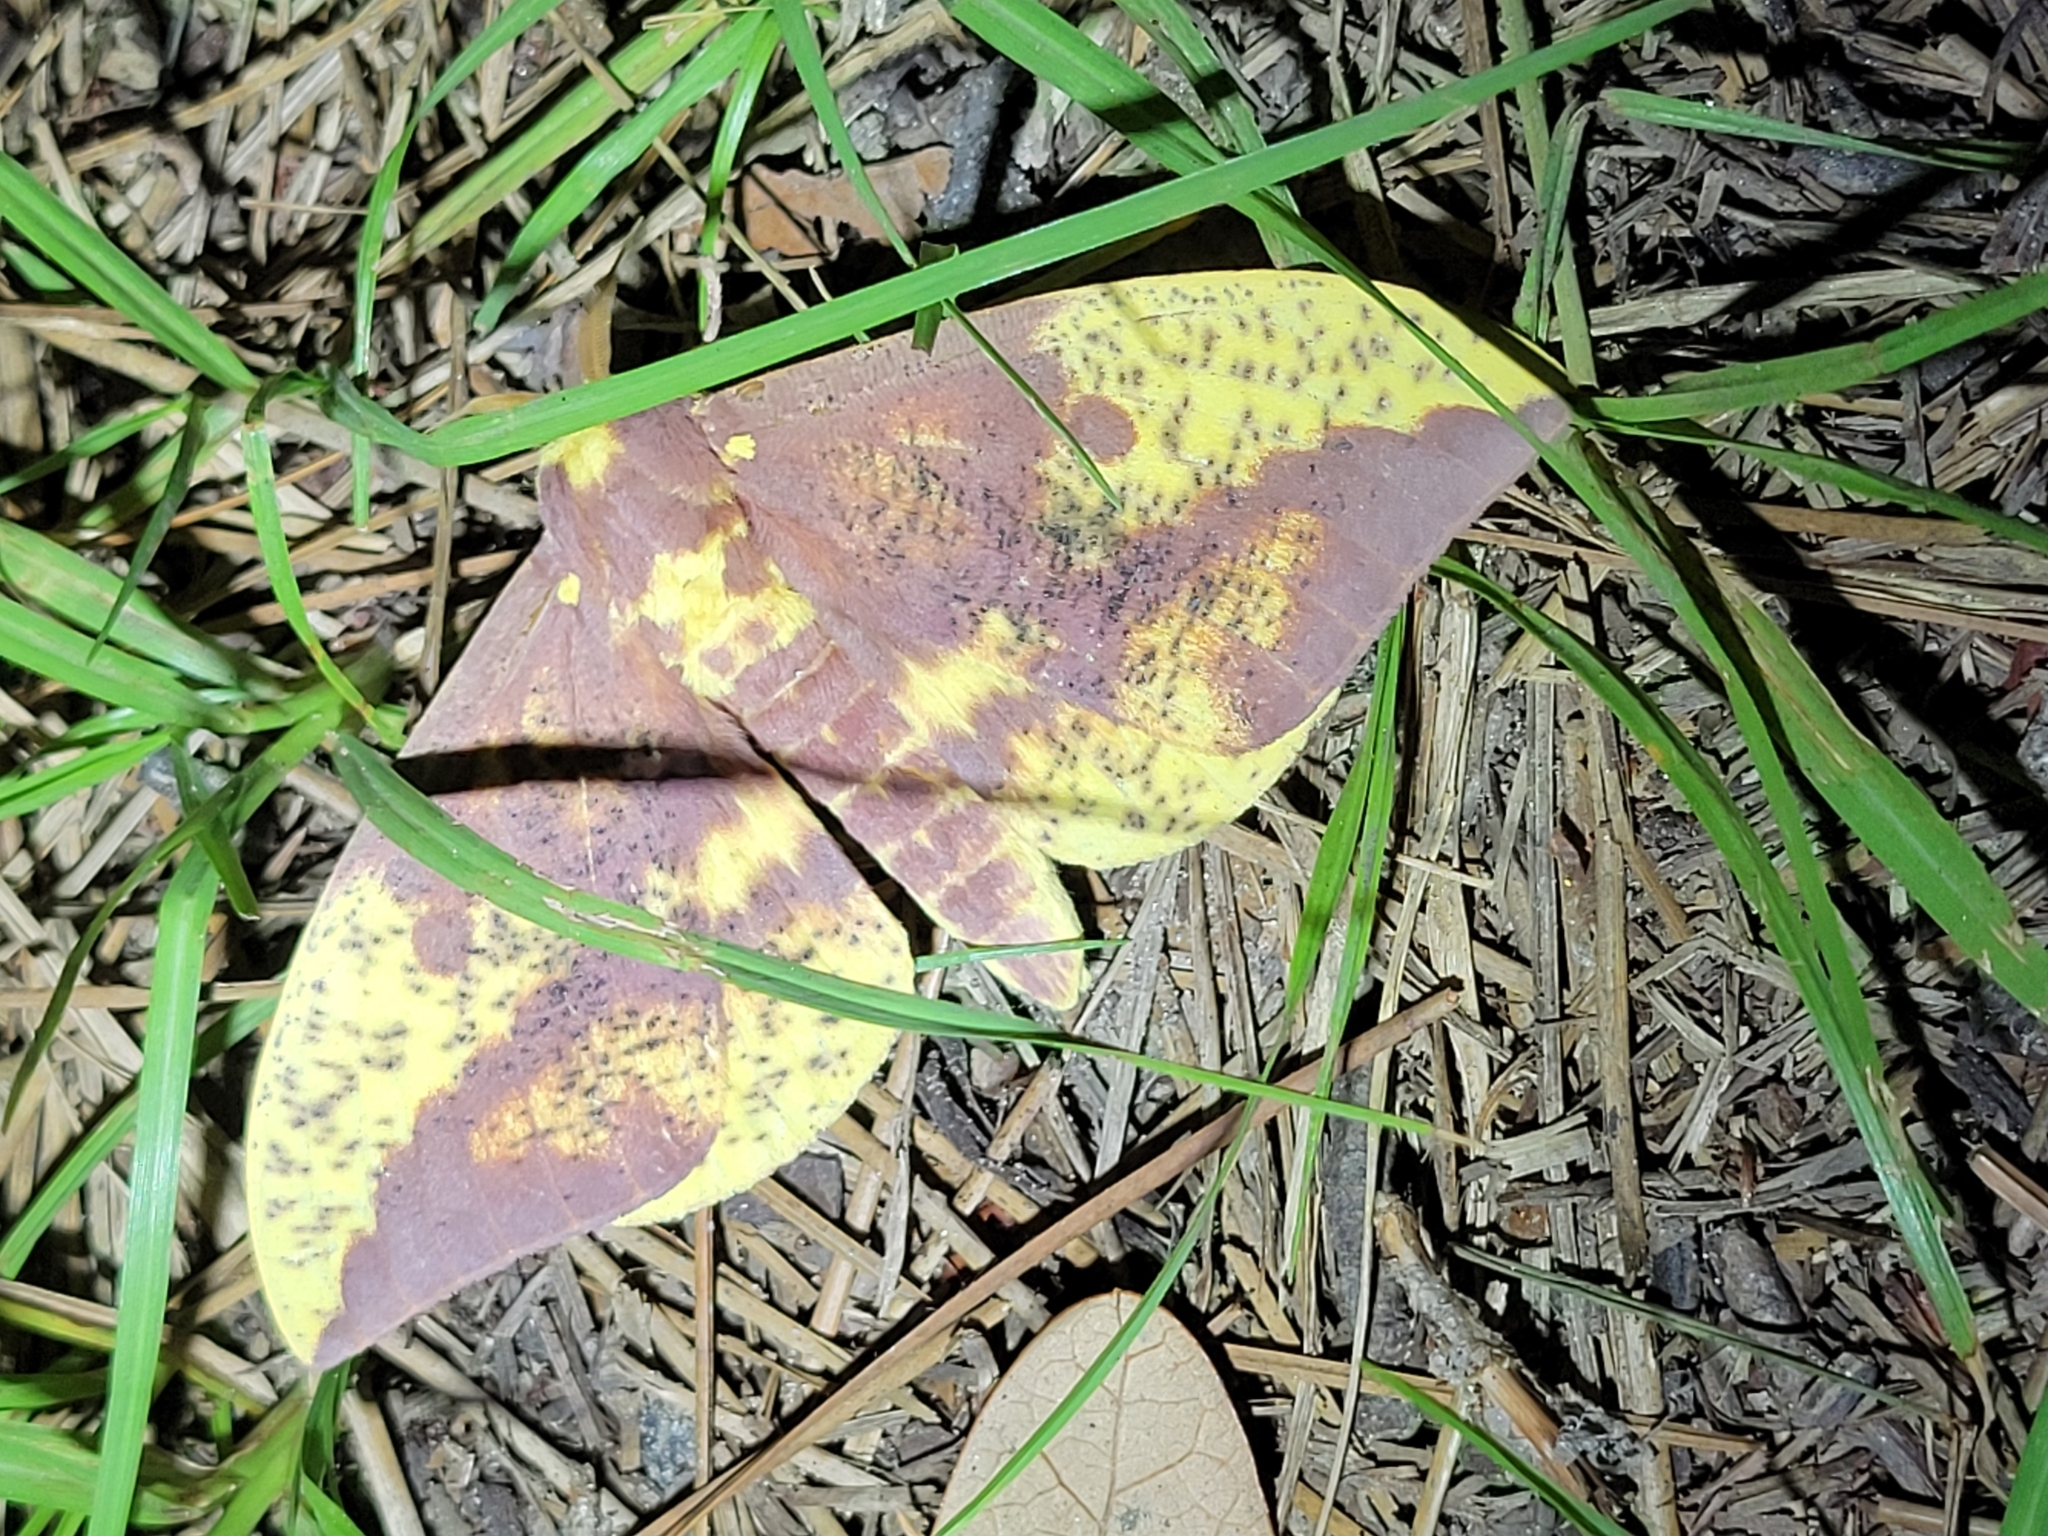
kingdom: Animalia
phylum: Arthropoda
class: Insecta
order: Lepidoptera
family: Saturniidae
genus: Eacles
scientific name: Eacles imperialis
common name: Imperial moth
